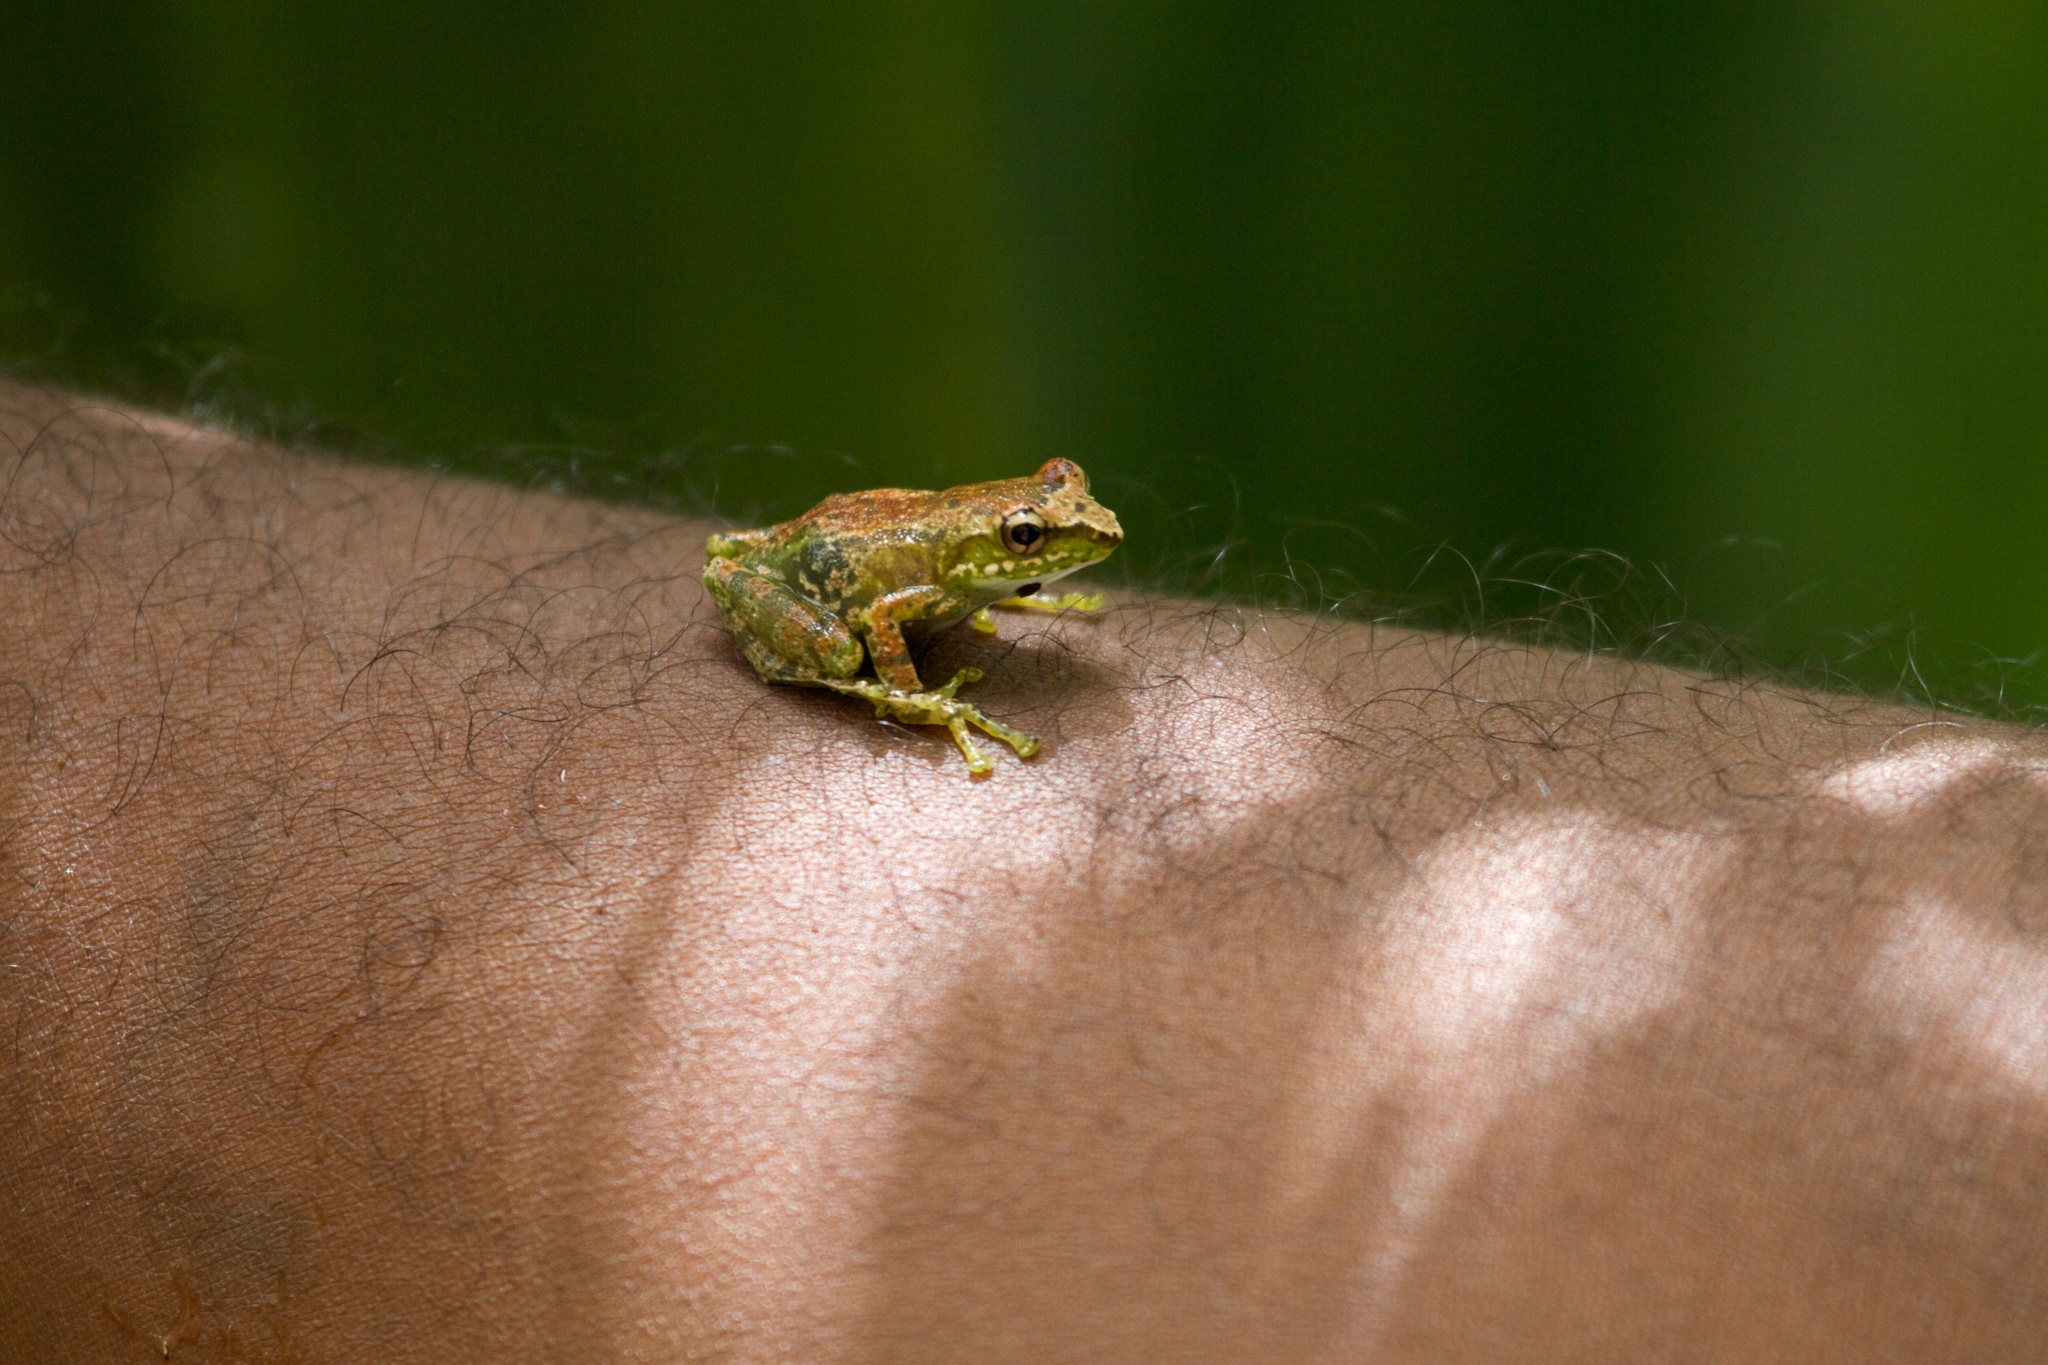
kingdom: Animalia
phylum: Chordata
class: Amphibia
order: Anura
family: Mantellidae
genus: Guibemantis
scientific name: Guibemantis liber
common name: Free madagascar frog
